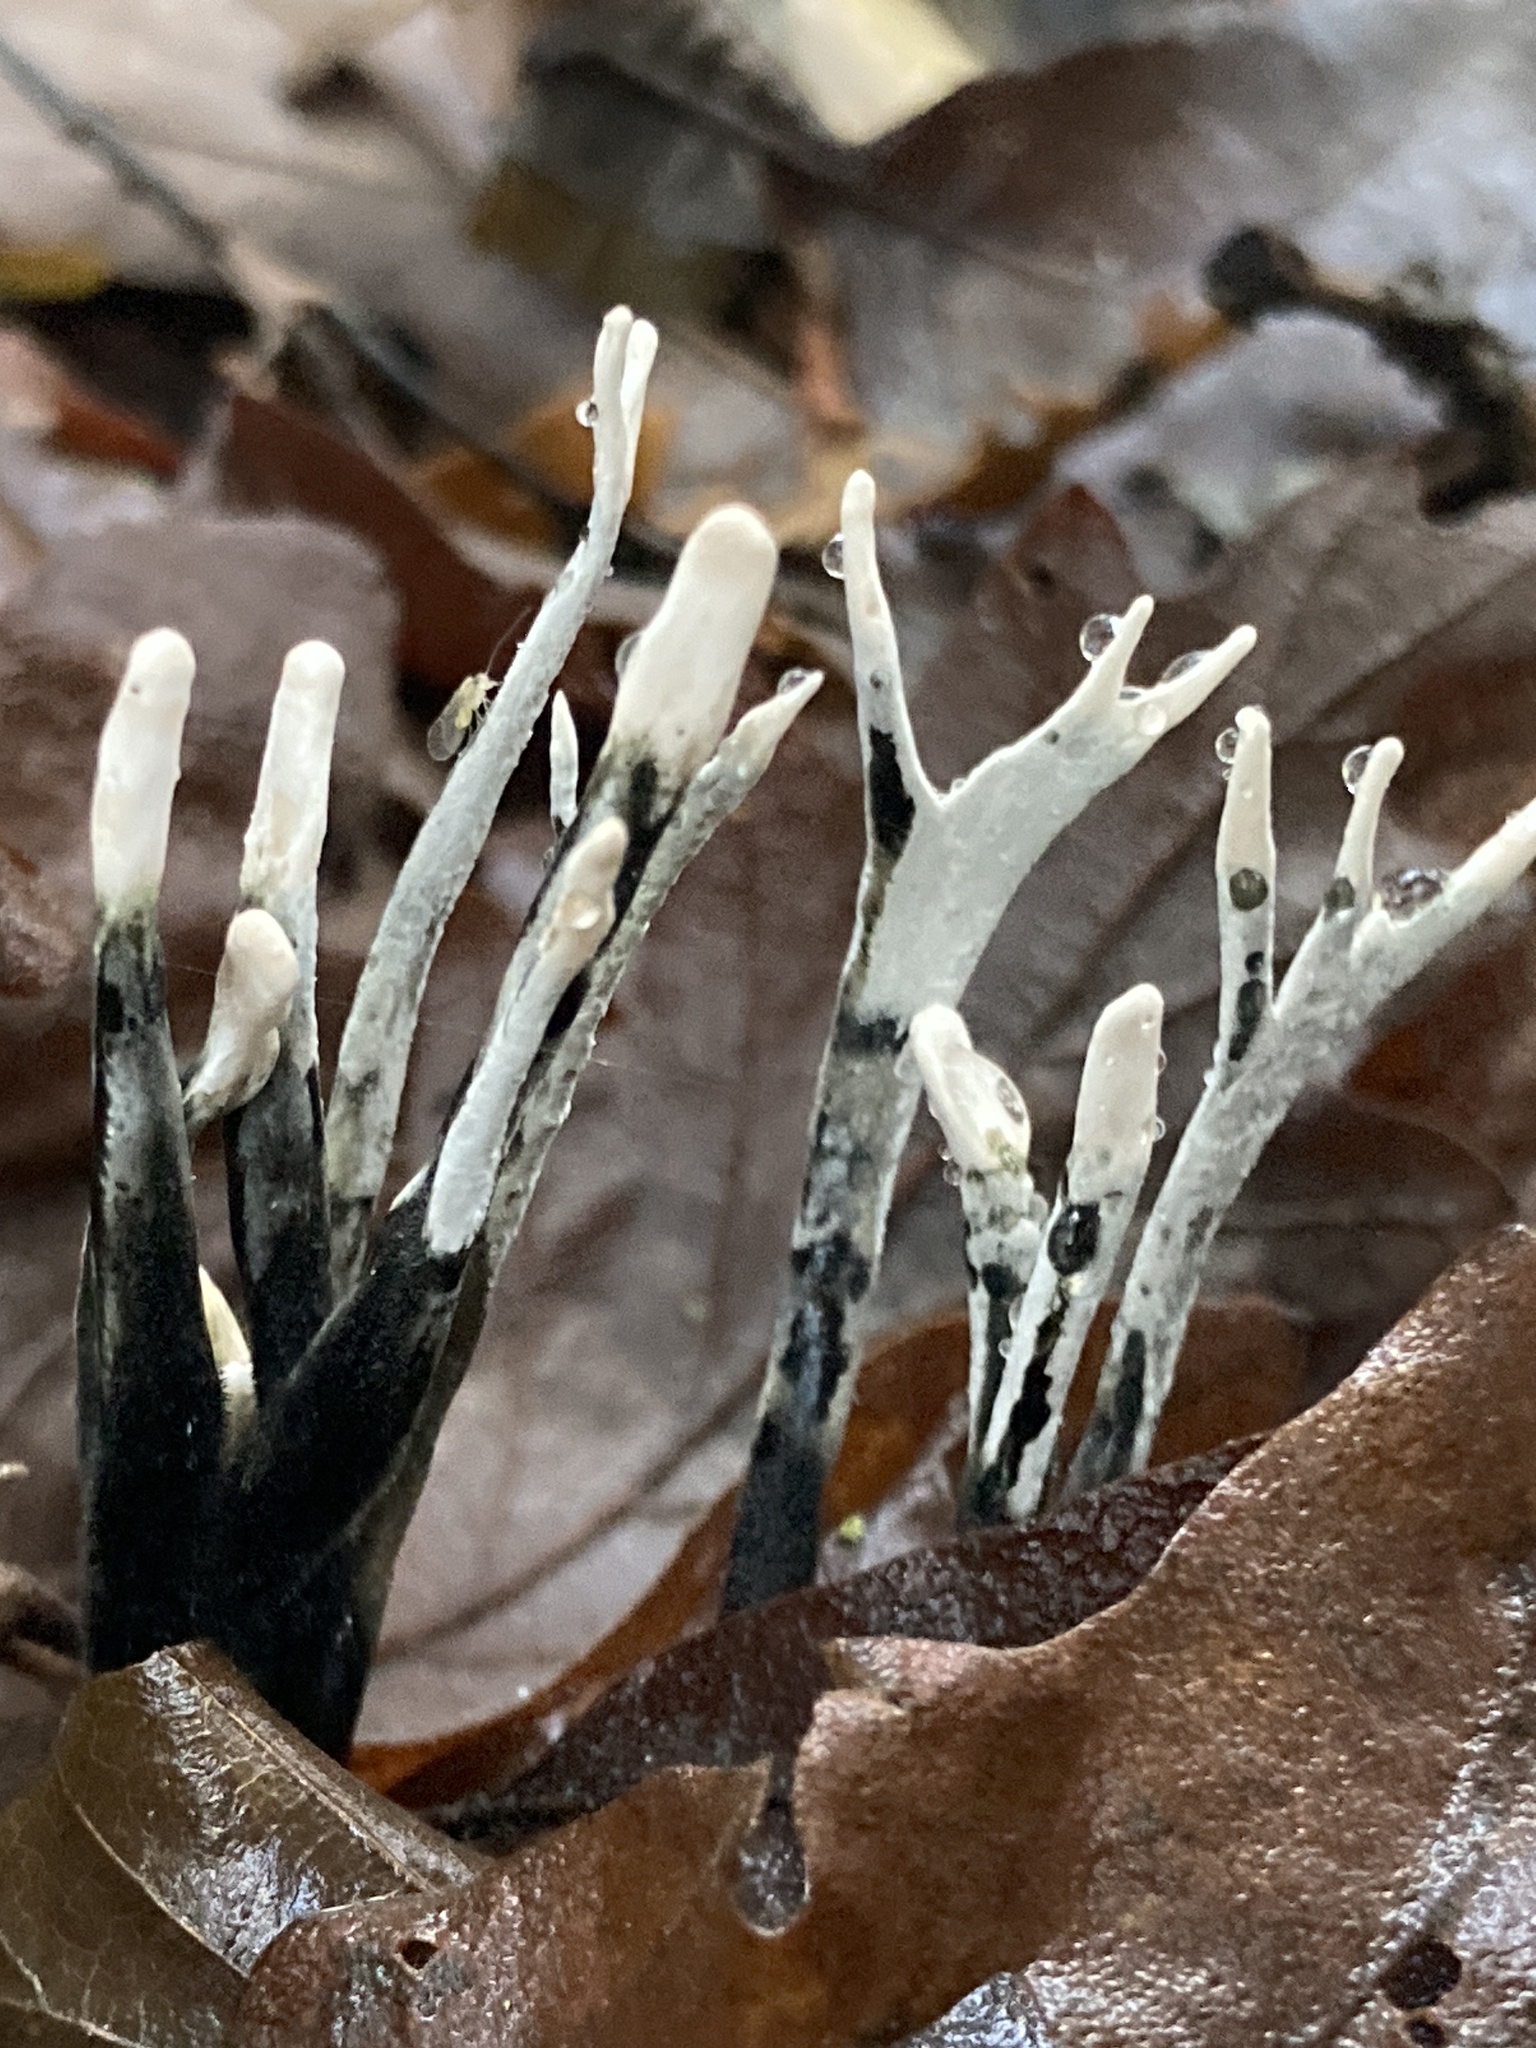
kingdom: Fungi
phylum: Ascomycota
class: Sordariomycetes
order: Xylariales
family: Xylariaceae
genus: Xylaria
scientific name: Xylaria hypoxylon
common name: Candle-snuff fungus
